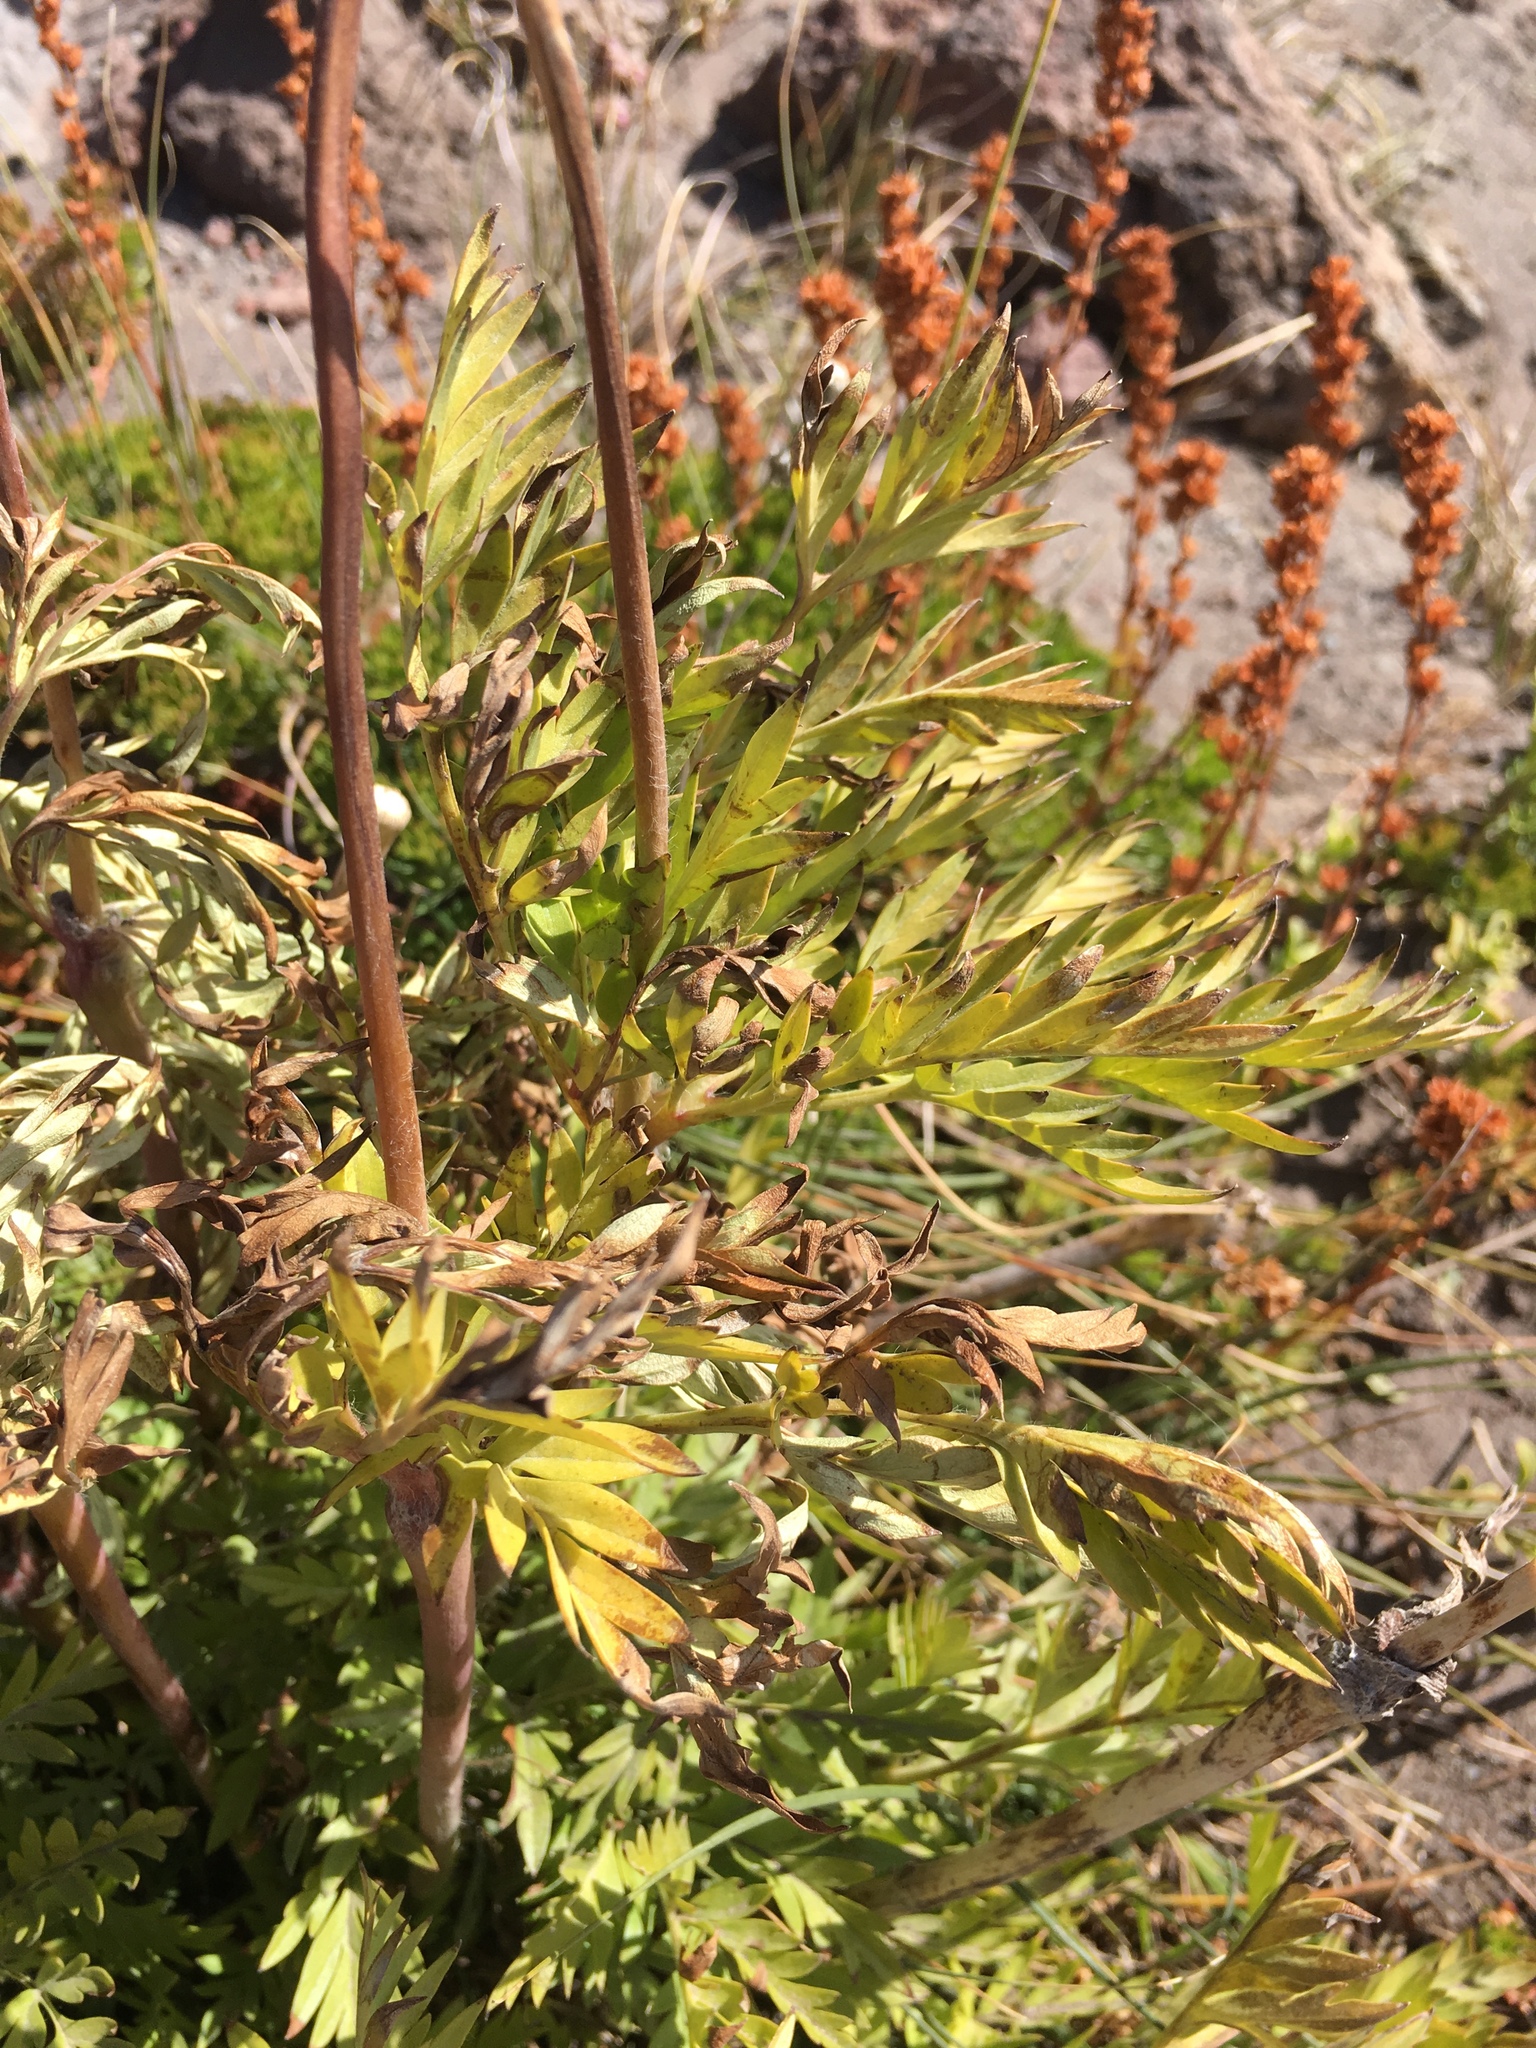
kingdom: Plantae
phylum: Tracheophyta
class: Magnoliopsida
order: Ranunculales
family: Ranunculaceae
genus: Pulsatilla
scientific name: Pulsatilla occidentalis
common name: Mountain pasqueflower
